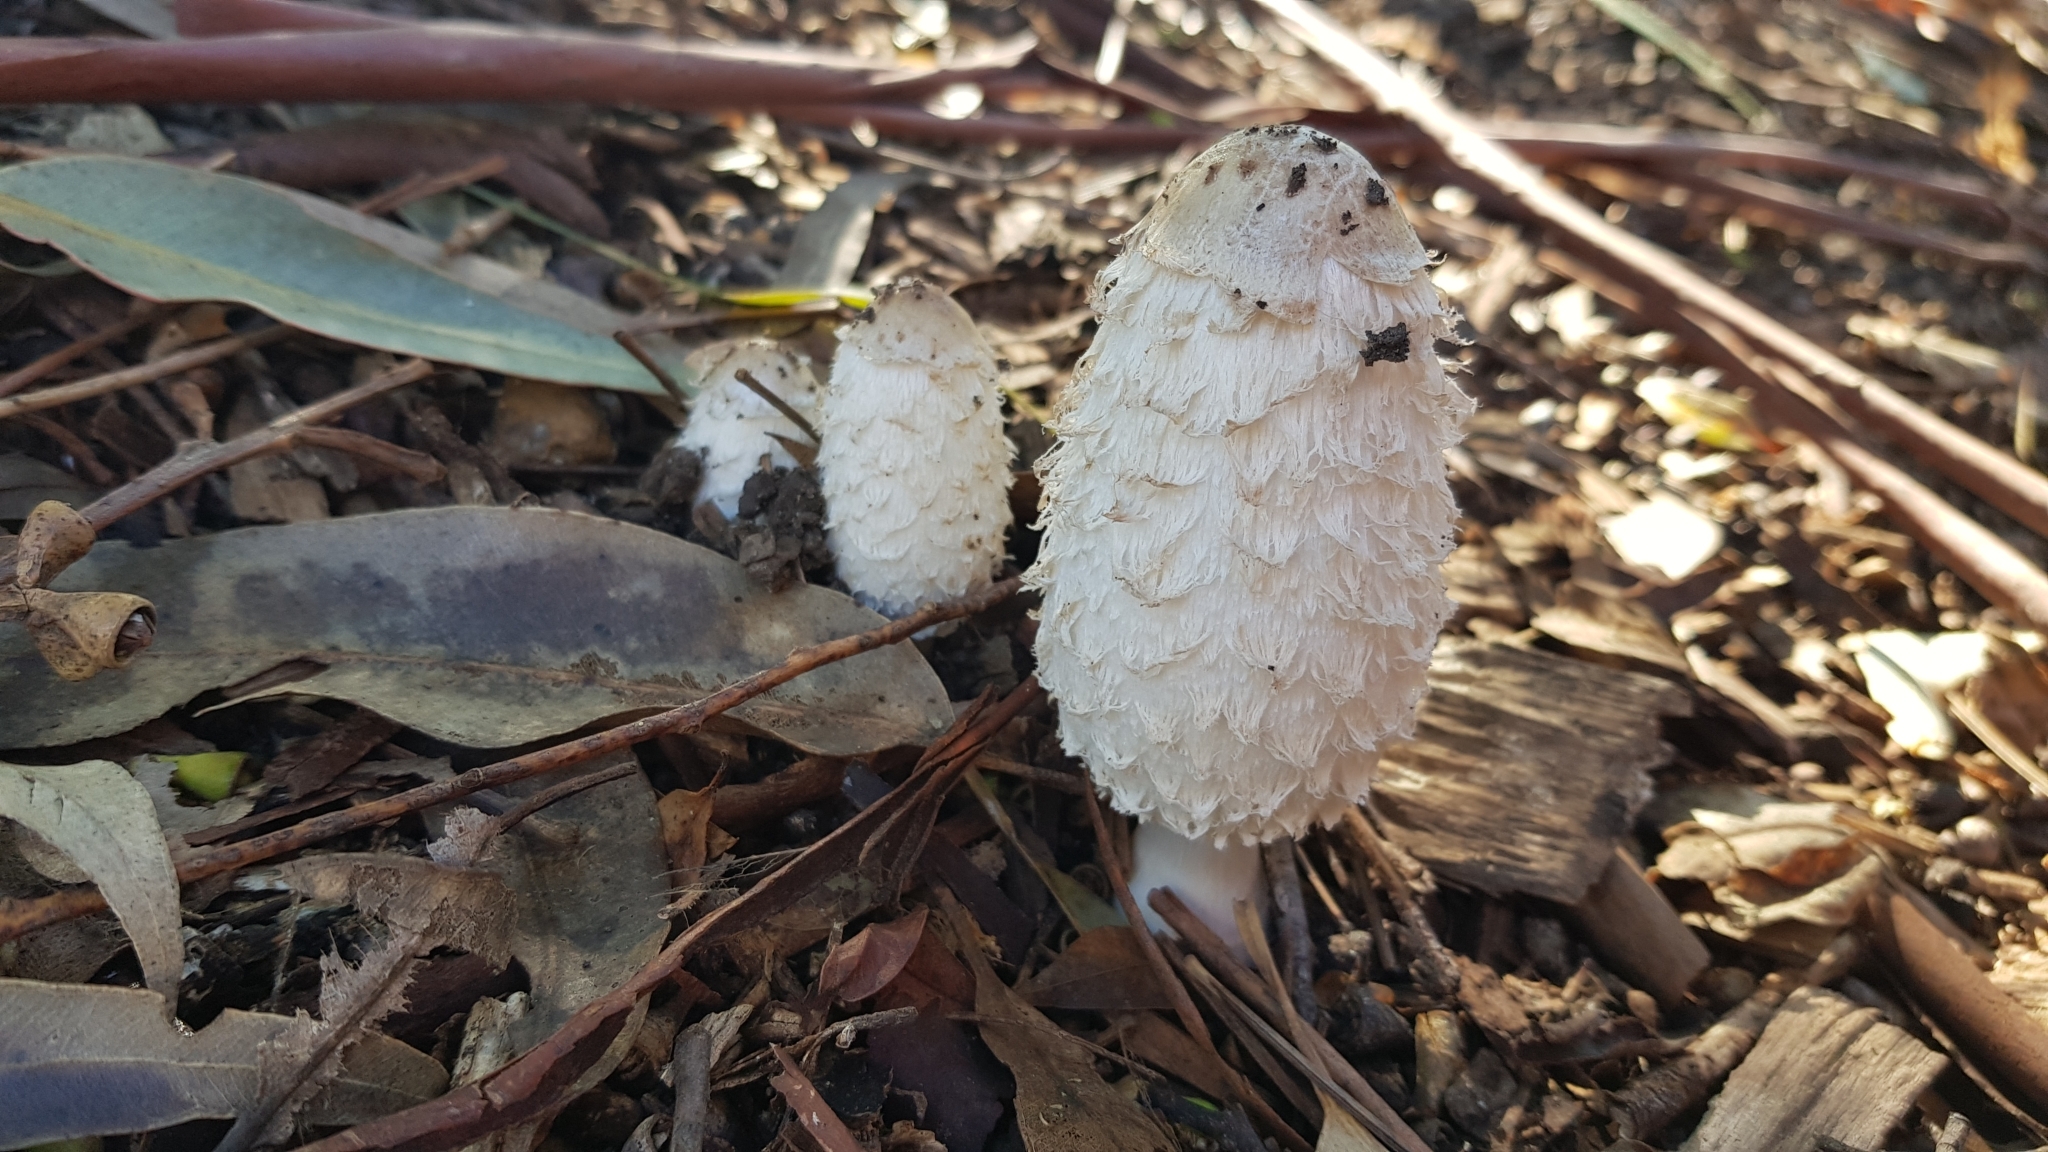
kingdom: Fungi
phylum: Basidiomycota
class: Agaricomycetes
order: Agaricales
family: Agaricaceae
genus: Coprinus
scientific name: Coprinus comatus
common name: Lawyer's wig
